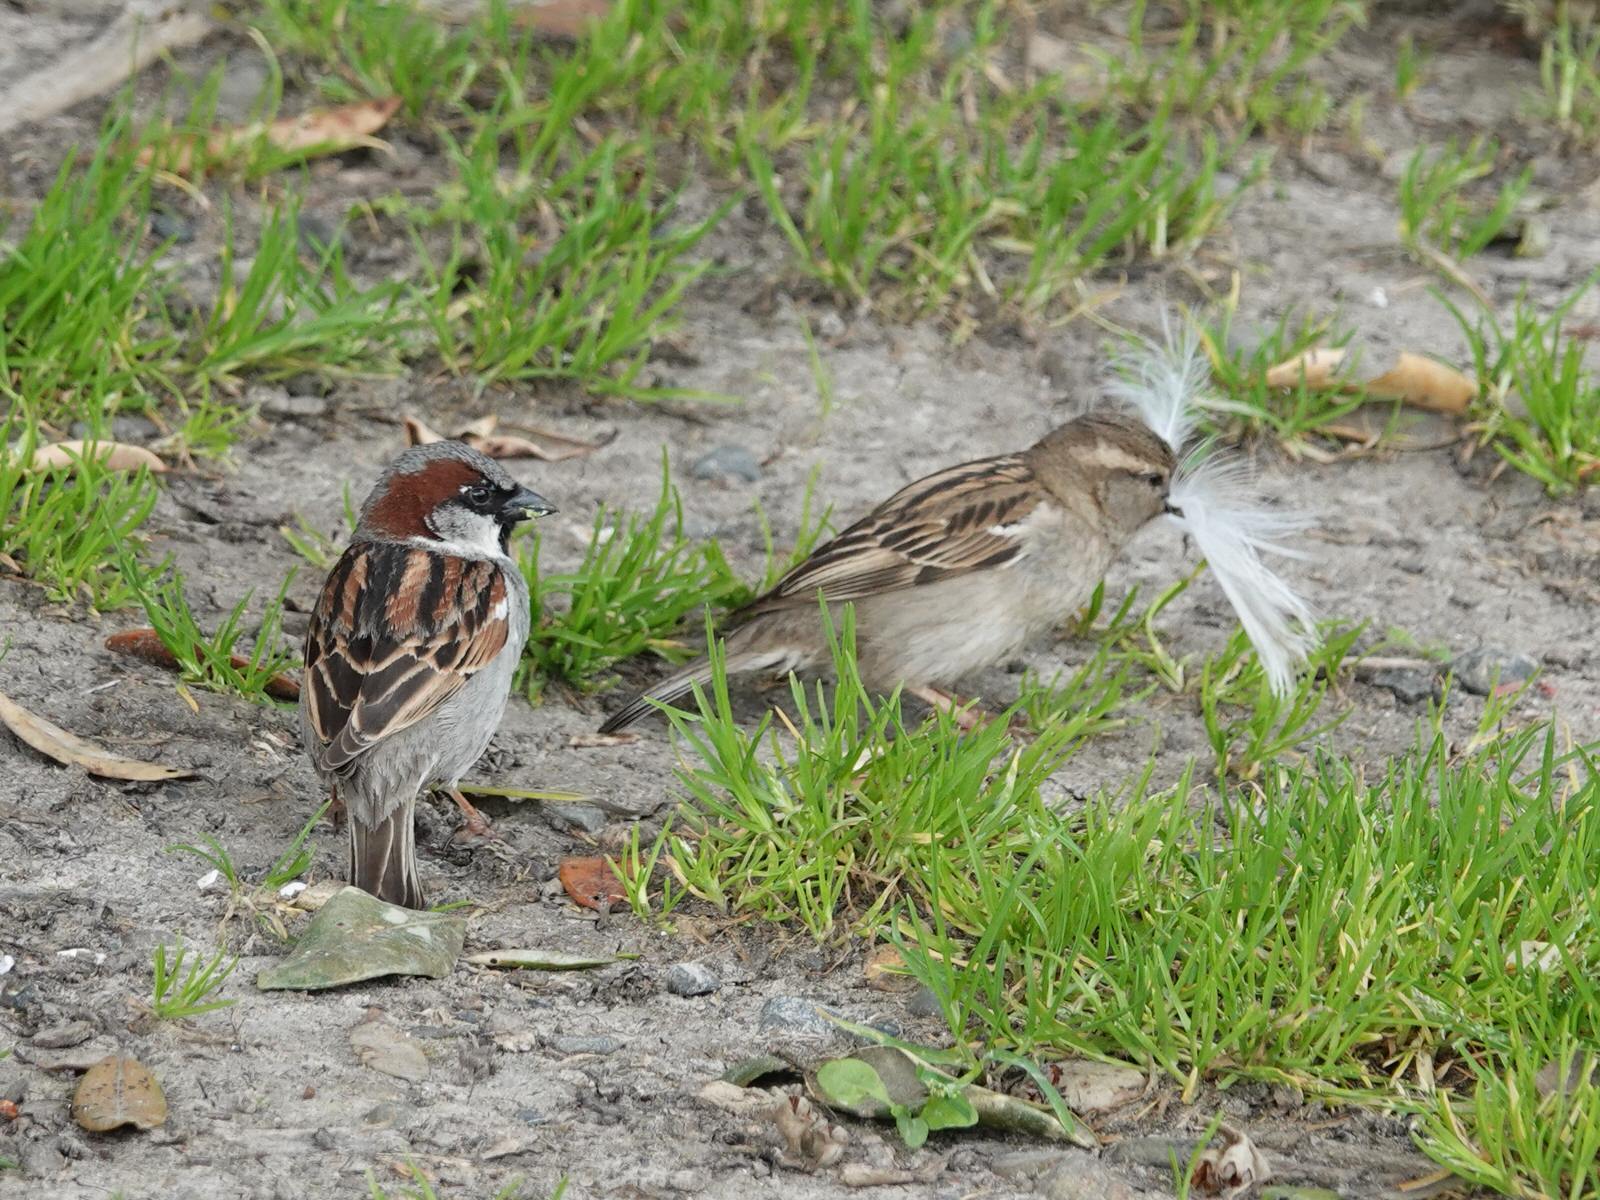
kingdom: Animalia
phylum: Chordata
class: Aves
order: Passeriformes
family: Passeridae
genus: Passer
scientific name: Passer domesticus
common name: House sparrow
